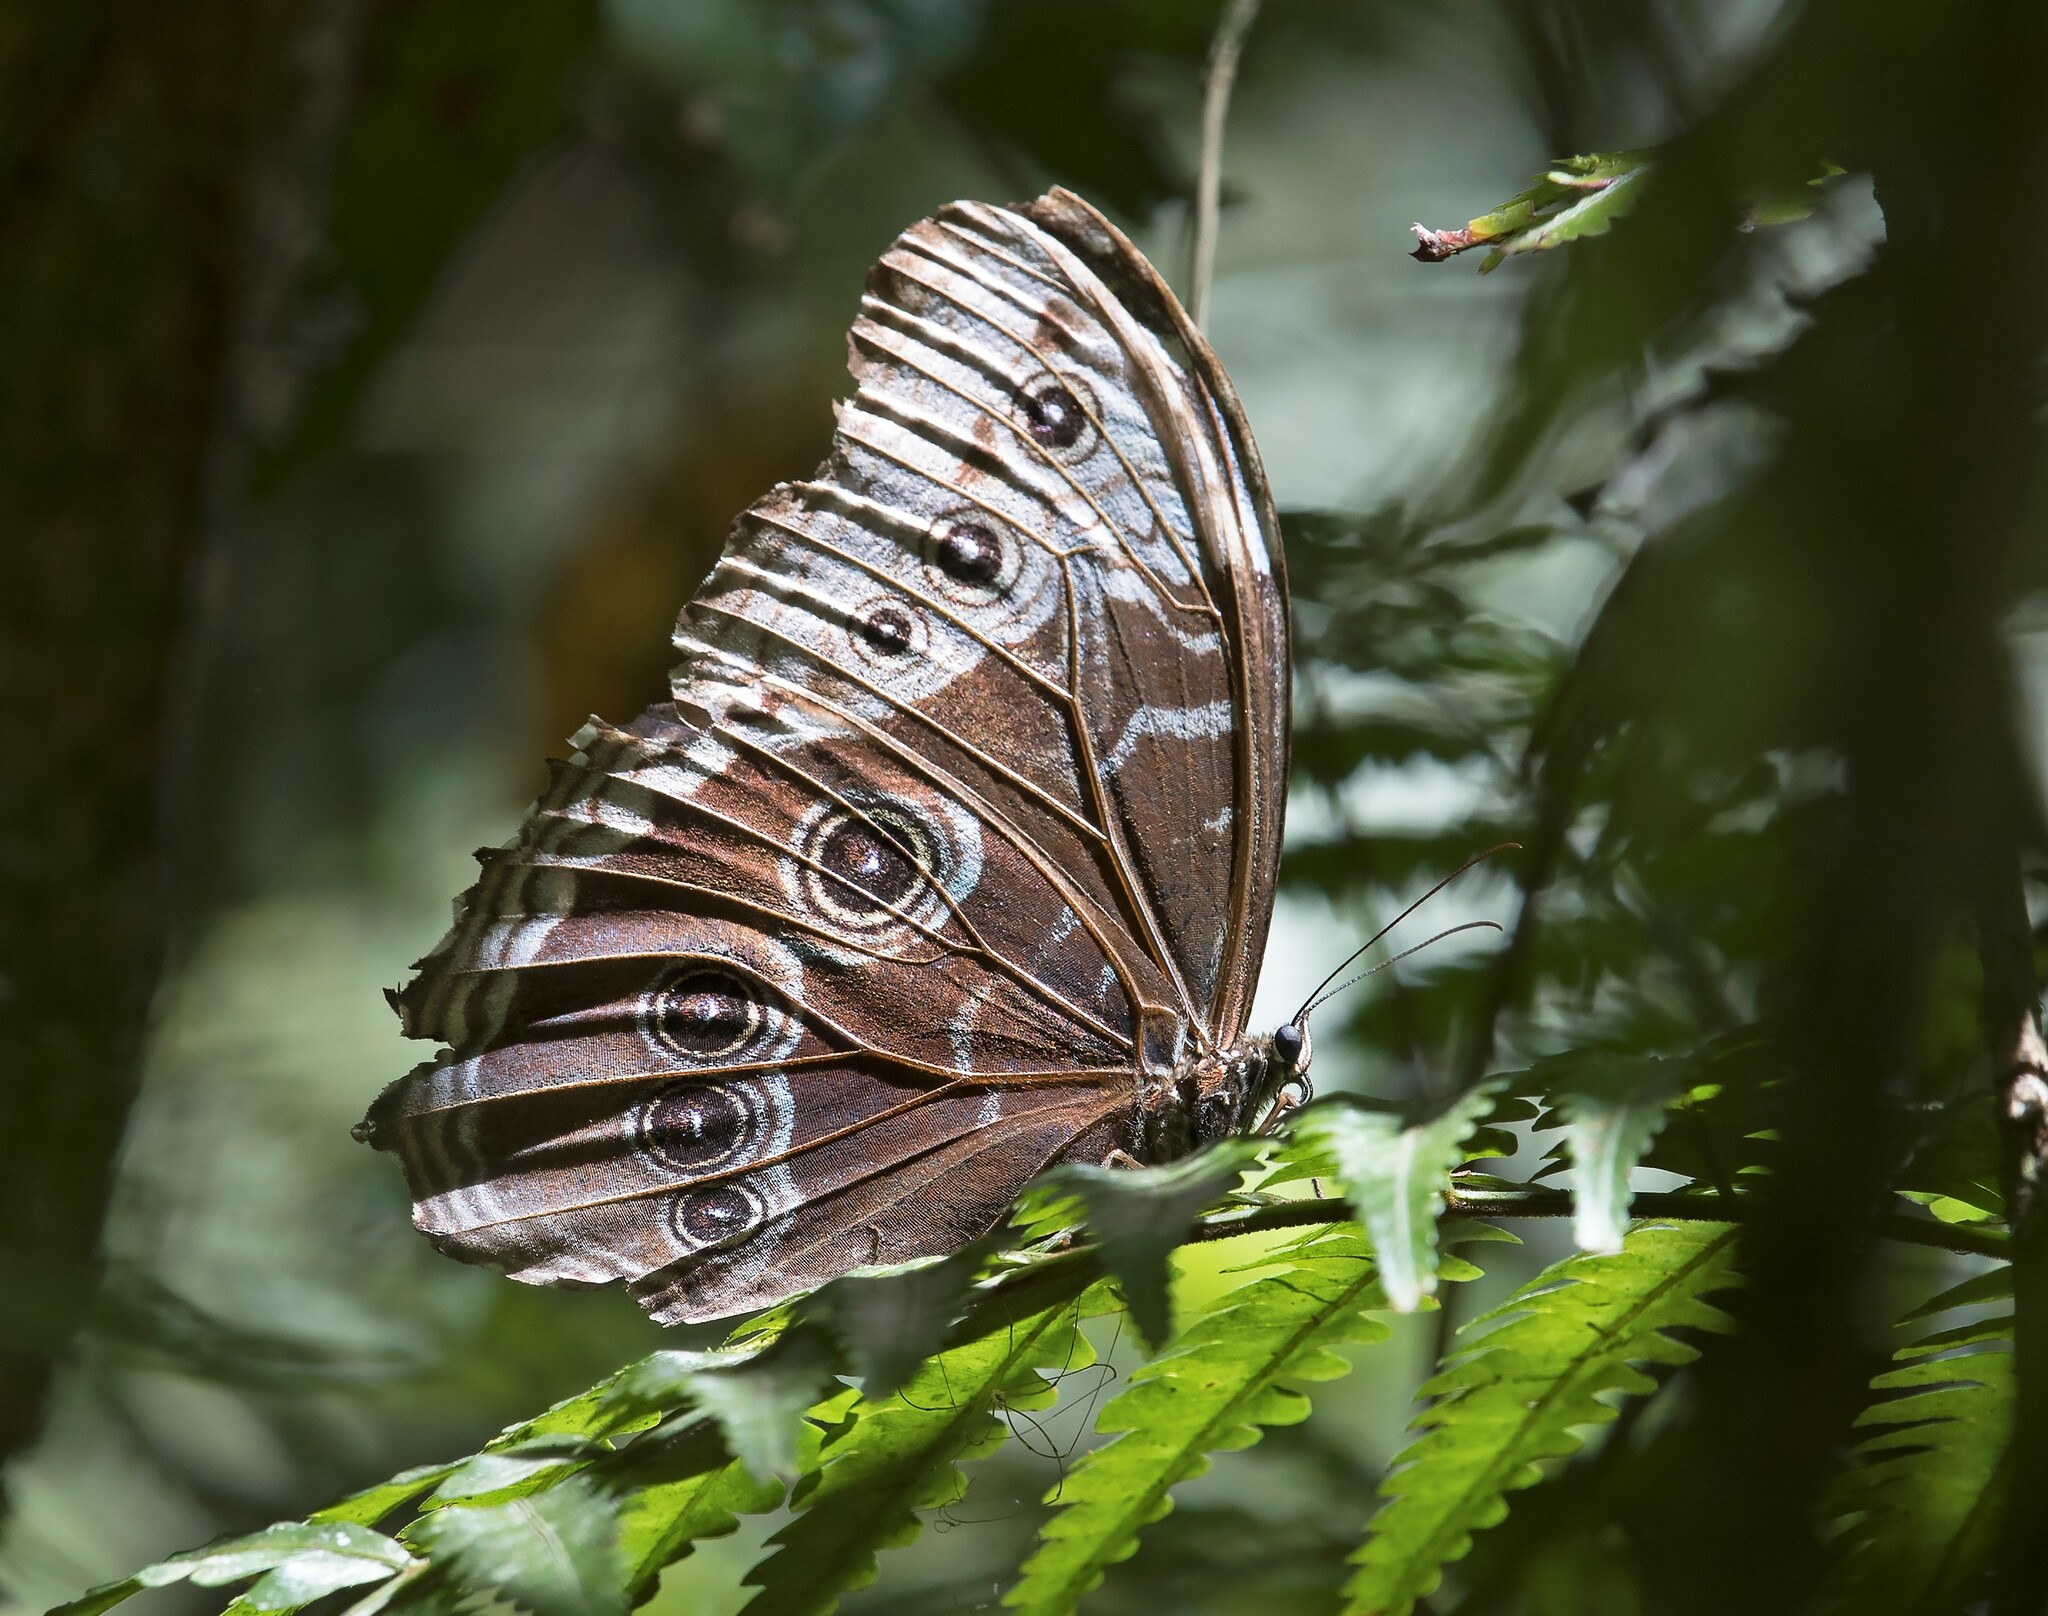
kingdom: Animalia
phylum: Arthropoda
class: Insecta
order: Lepidoptera
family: Nymphalidae
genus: Morpho
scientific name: Morpho helenor
